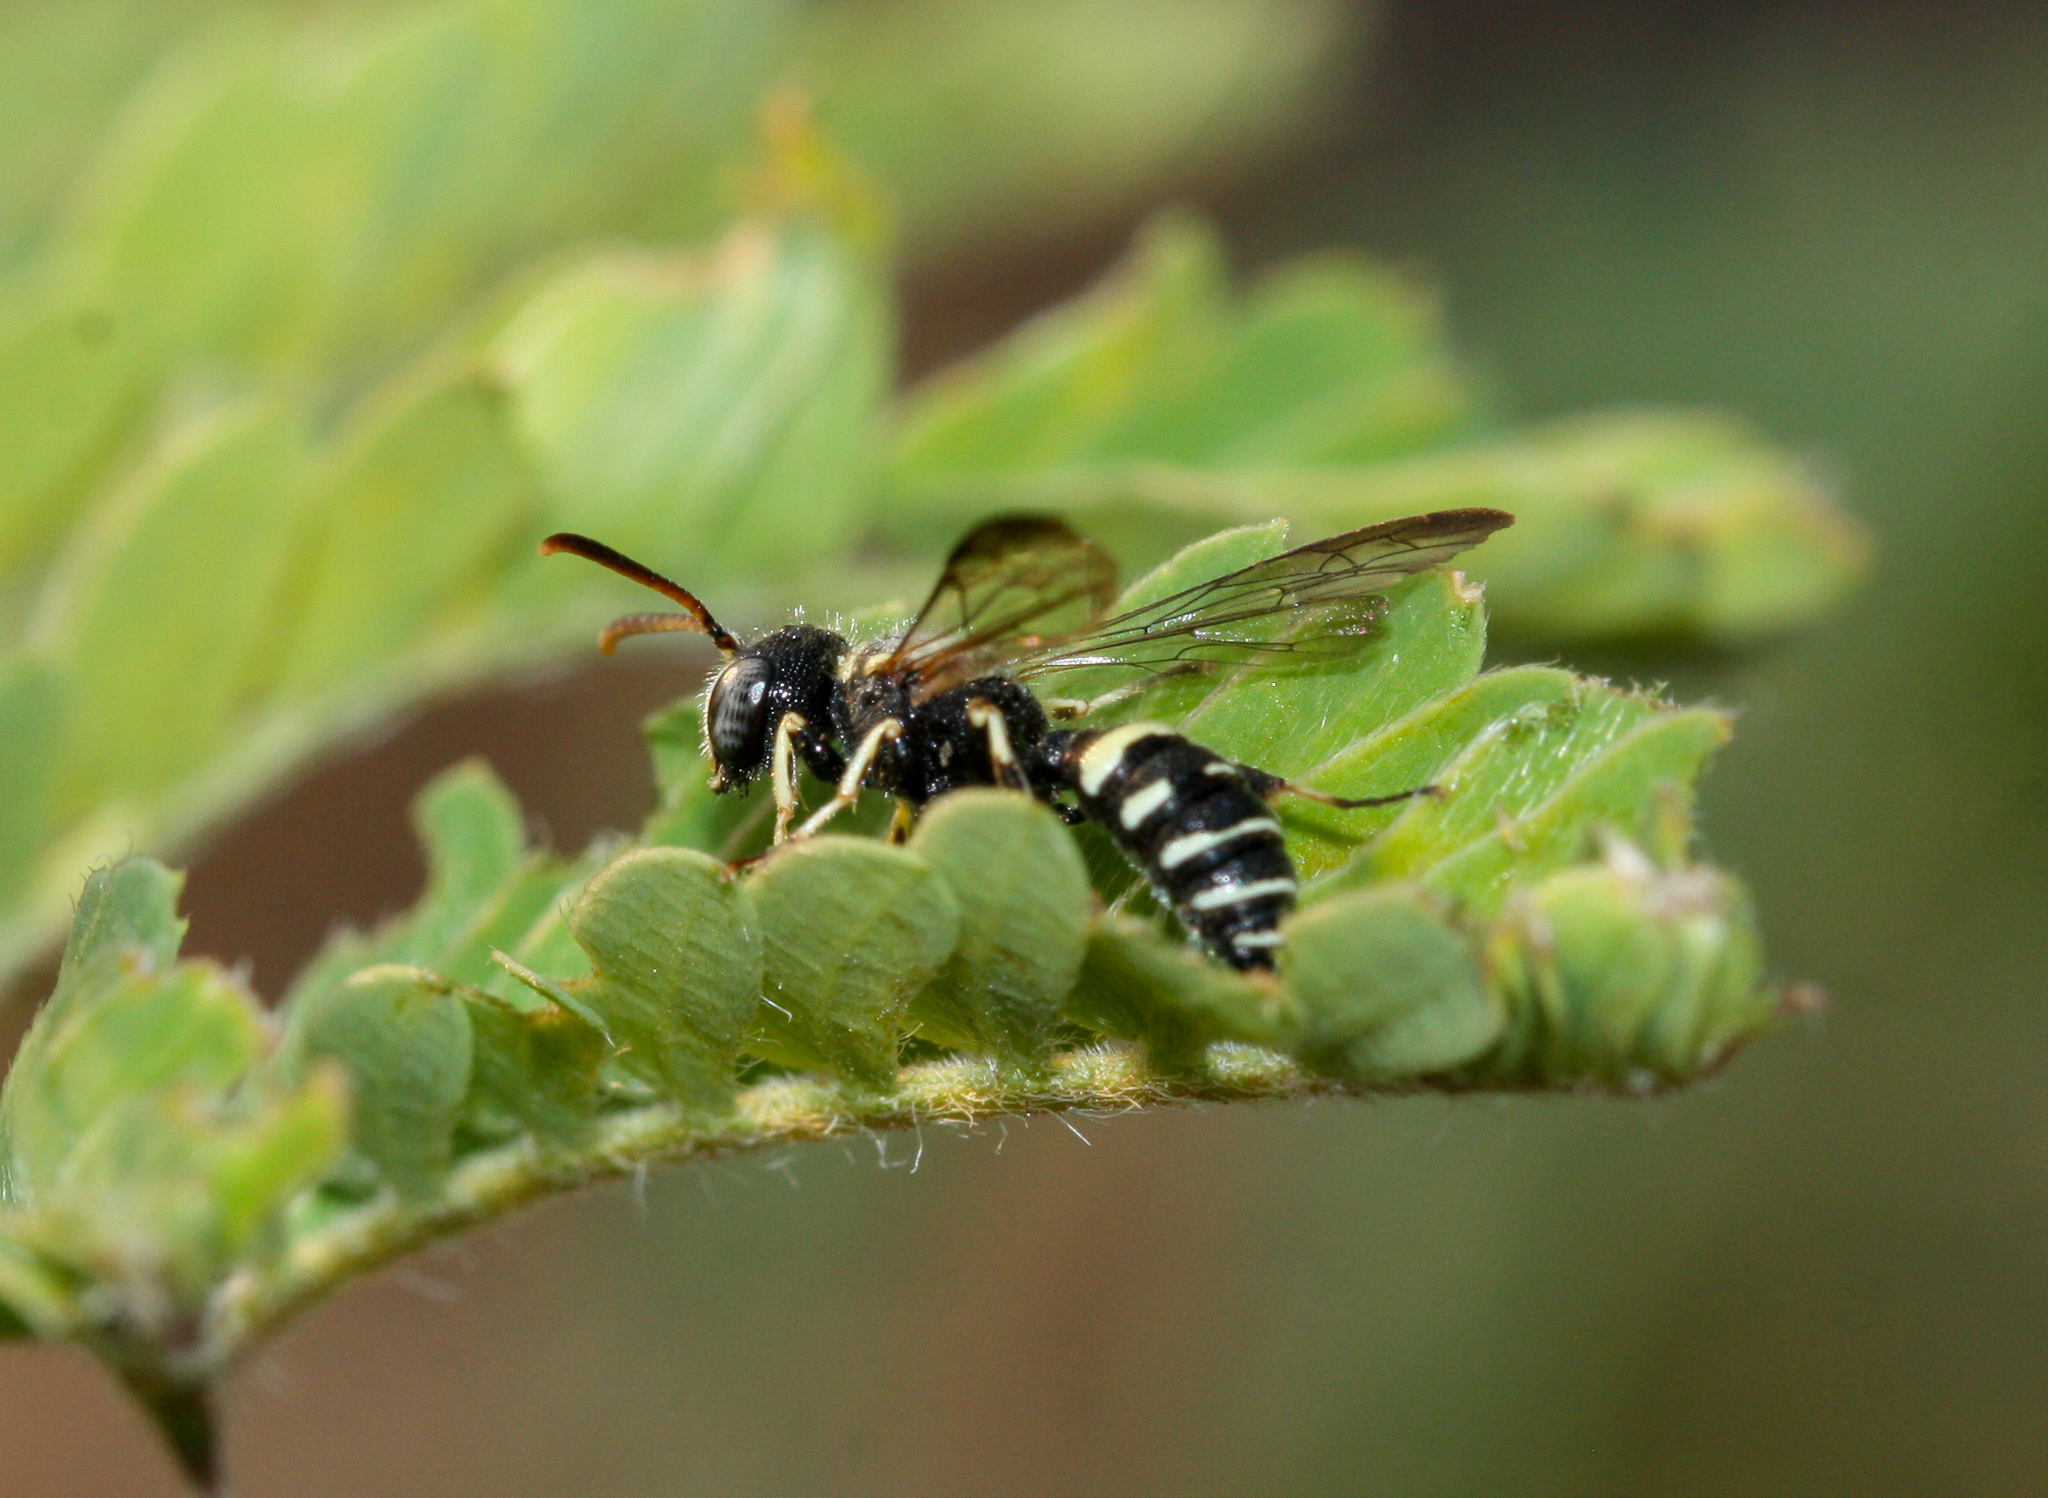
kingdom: Animalia
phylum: Arthropoda
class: Insecta
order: Hymenoptera
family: Crabronidae
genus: Cerceris
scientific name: Cerceris convergens
